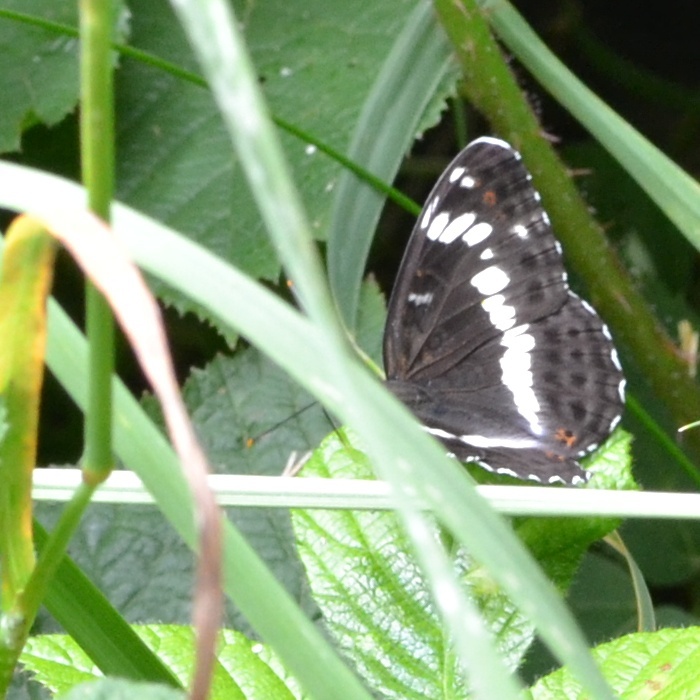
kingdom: Animalia
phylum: Arthropoda
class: Insecta
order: Lepidoptera
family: Nymphalidae
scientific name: Nymphalidae
